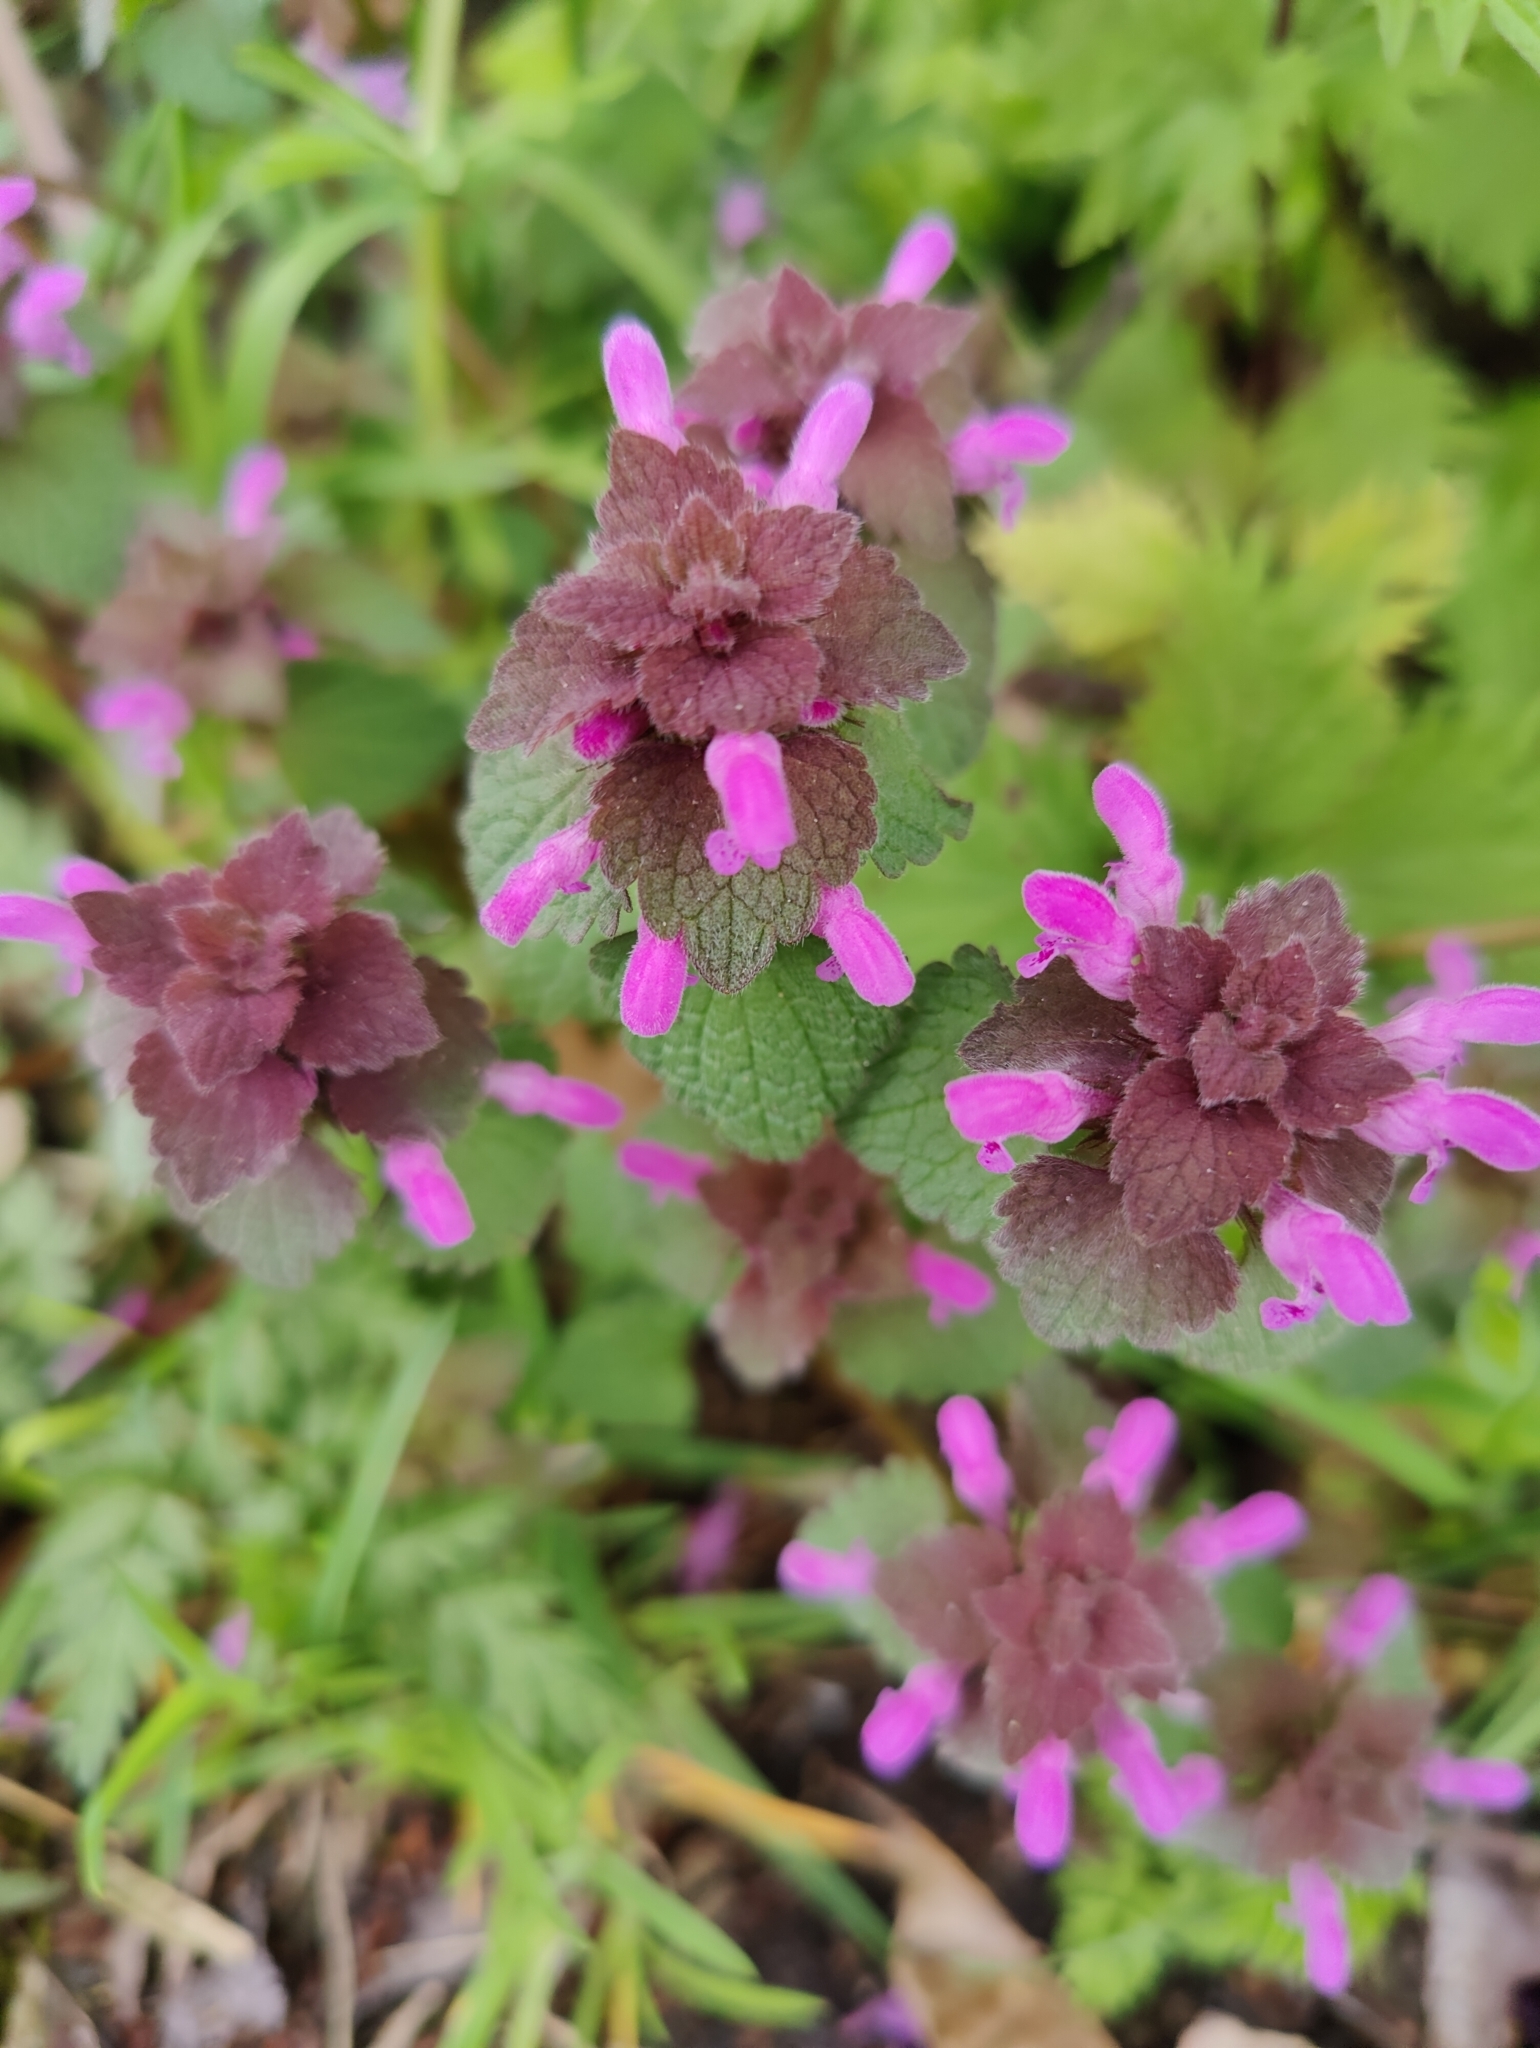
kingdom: Plantae
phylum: Tracheophyta
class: Magnoliopsida
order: Lamiales
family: Lamiaceae
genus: Lamium
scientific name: Lamium purpureum
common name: Red dead-nettle
